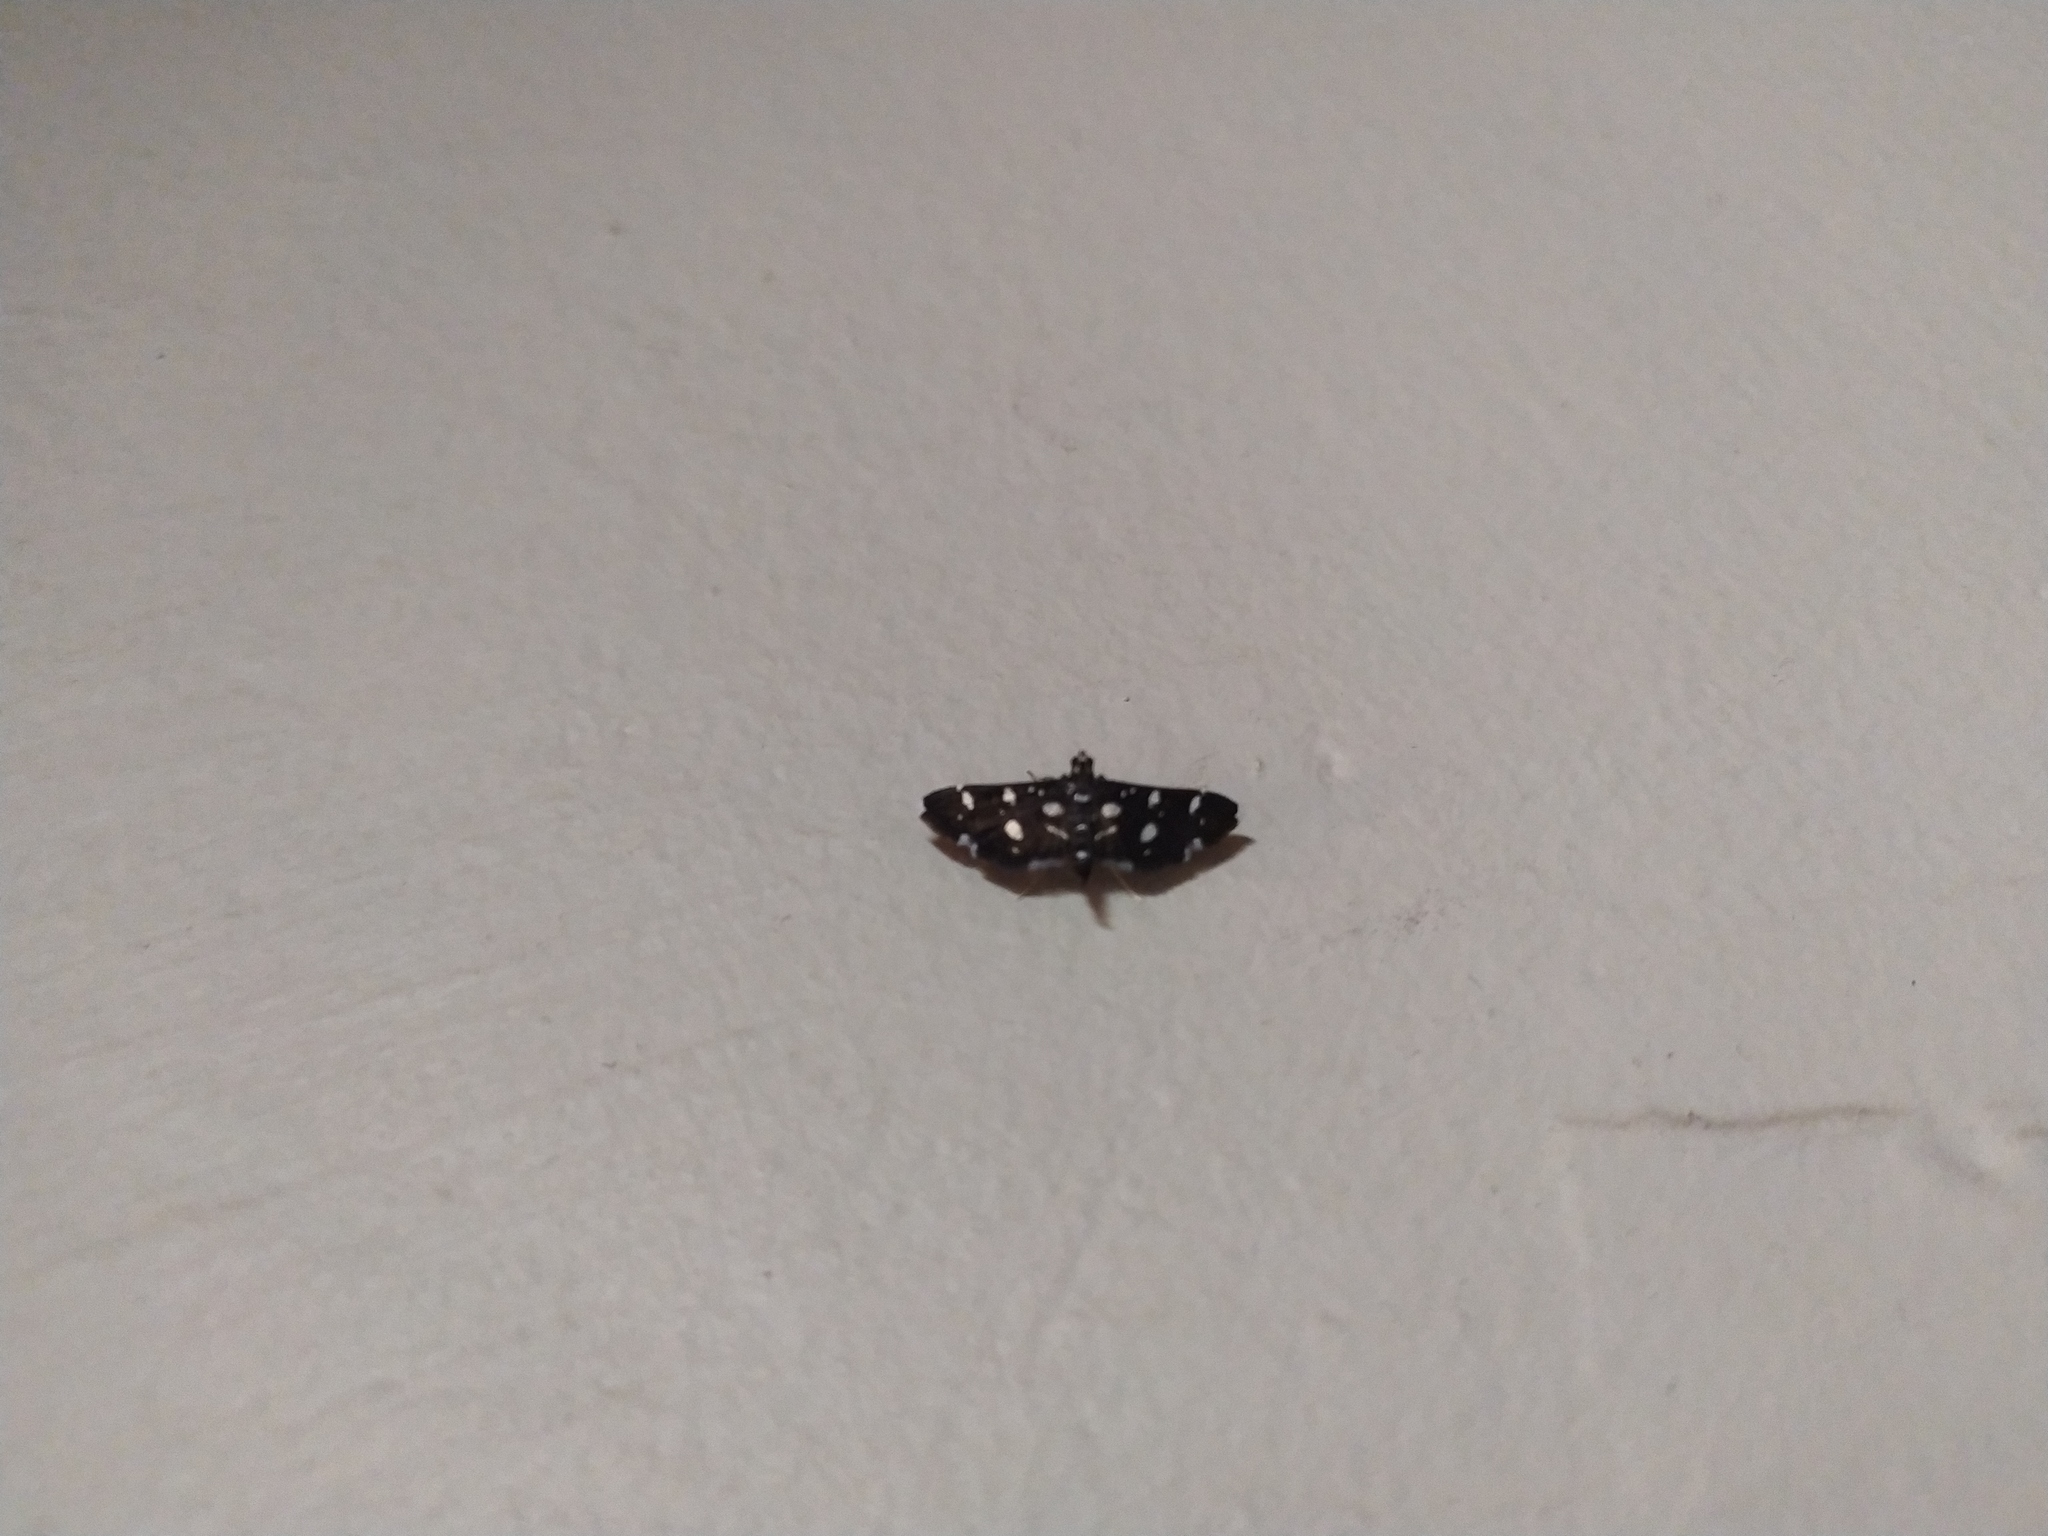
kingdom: Animalia
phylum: Arthropoda
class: Insecta
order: Lepidoptera
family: Crambidae
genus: Bocchoris
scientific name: Bocchoris inspersalis
